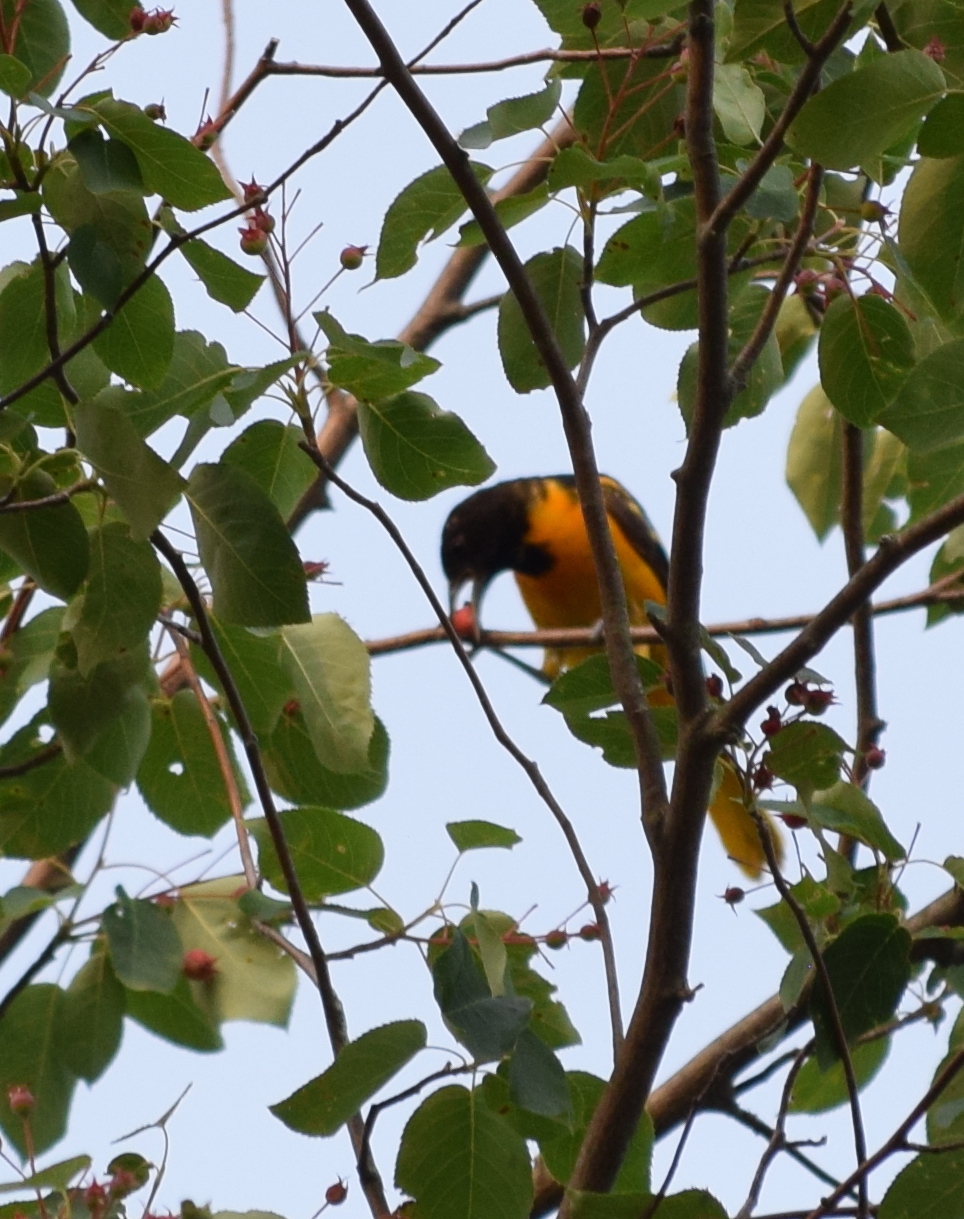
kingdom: Animalia
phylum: Chordata
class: Aves
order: Passeriformes
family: Icteridae
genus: Icterus
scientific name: Icterus galbula
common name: Baltimore oriole
